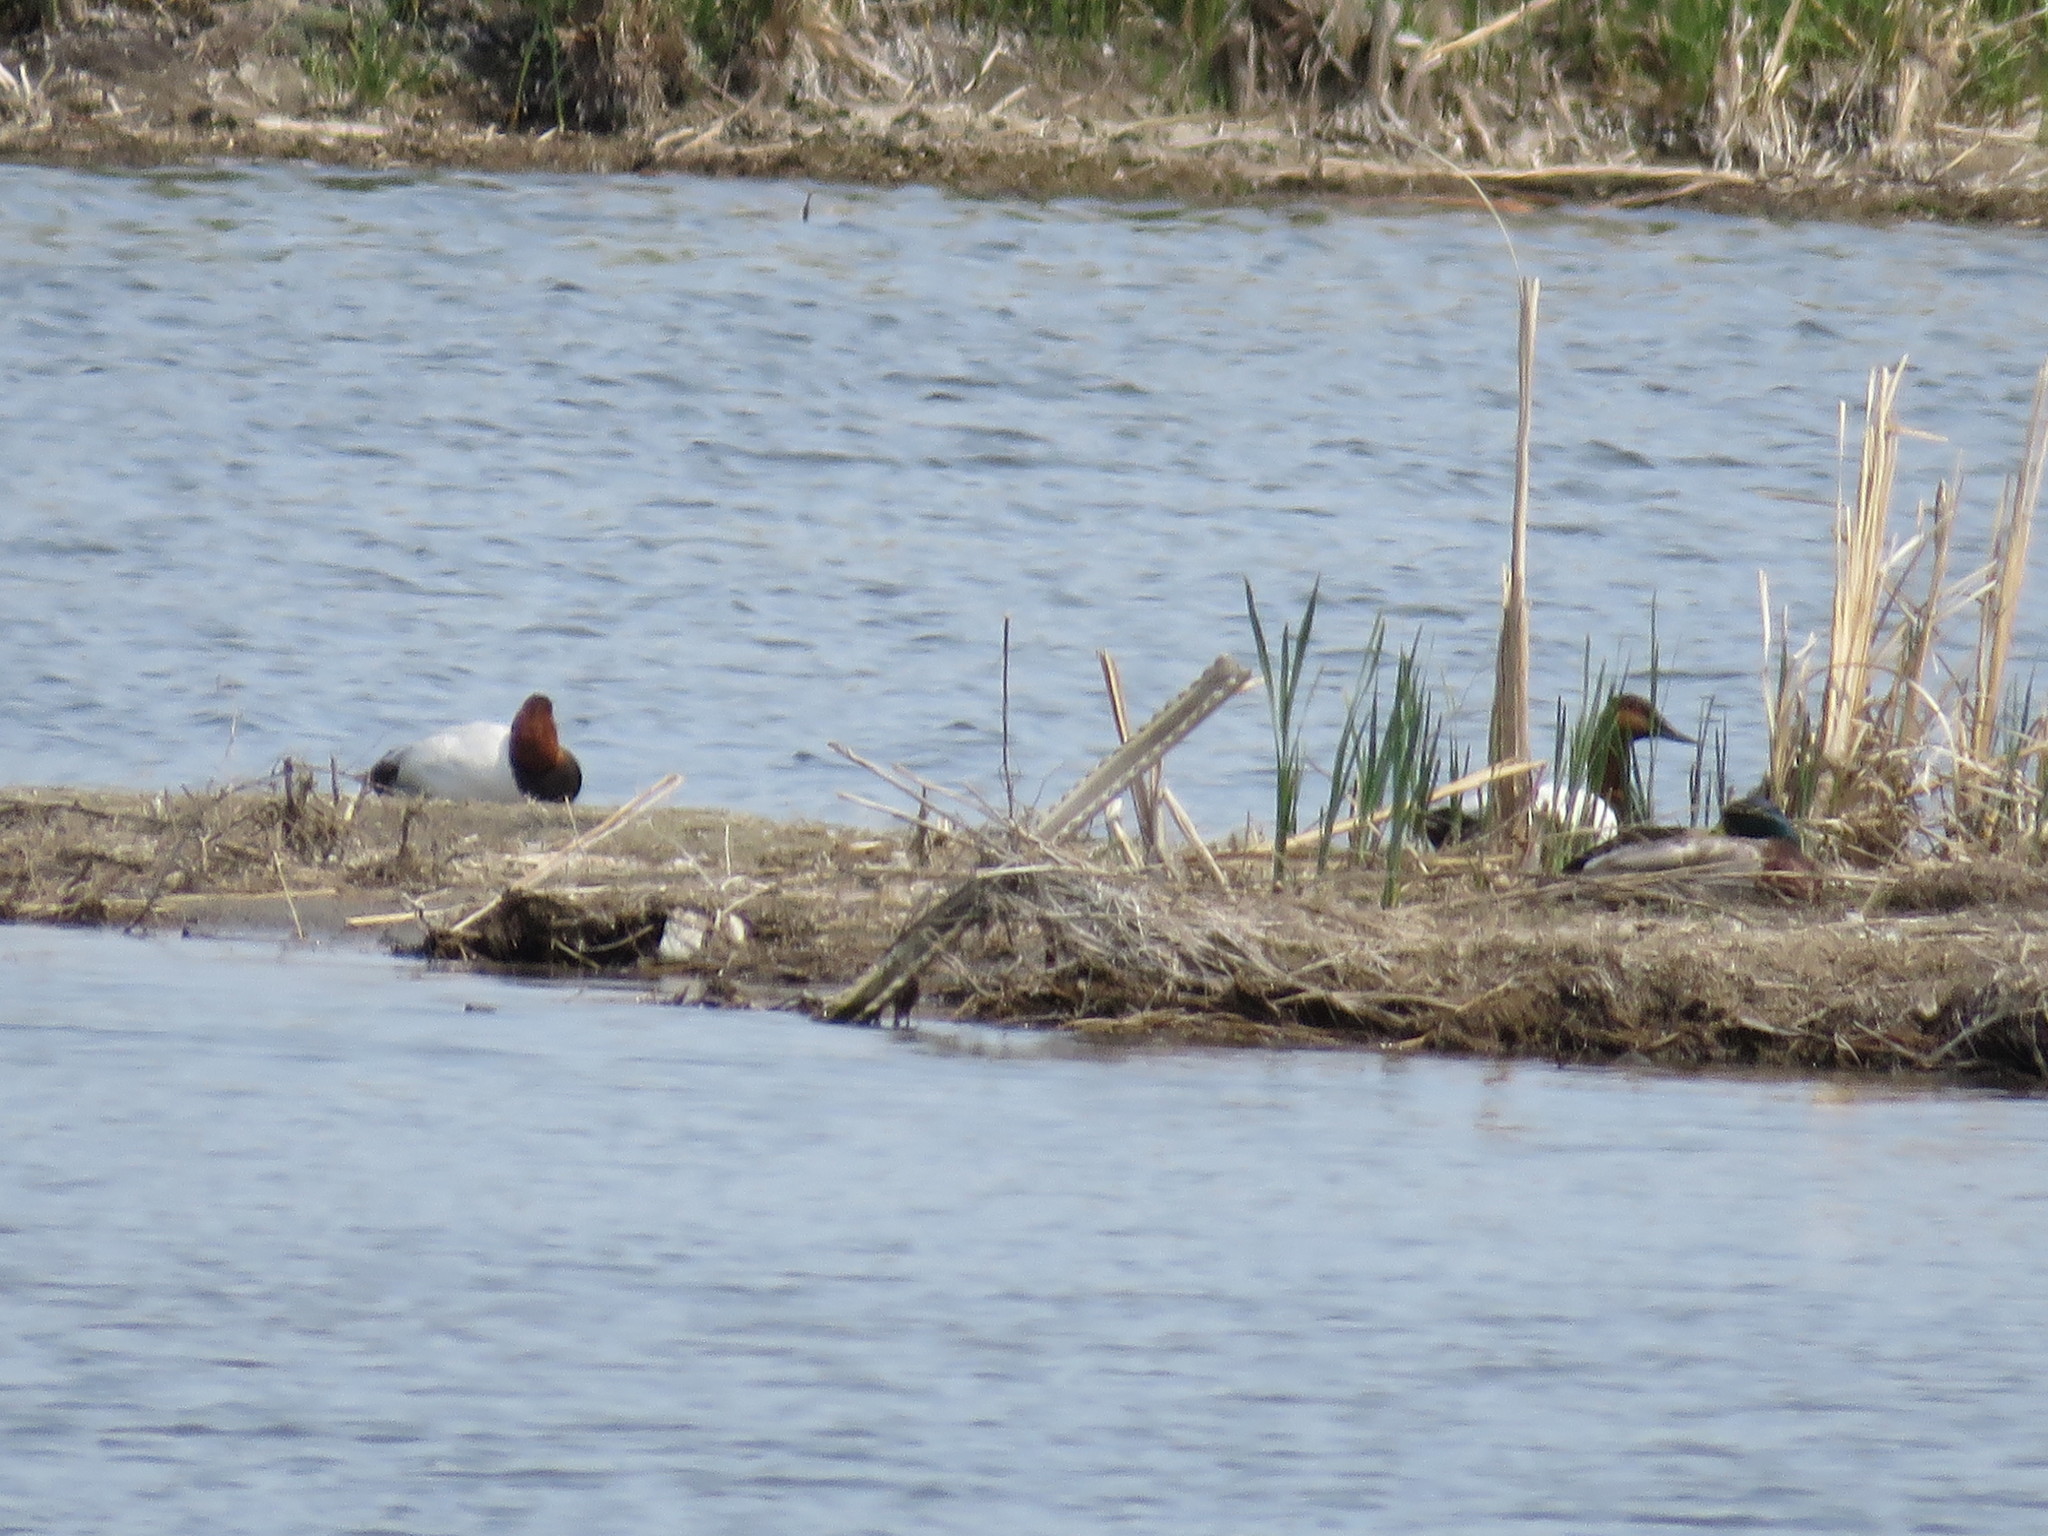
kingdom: Animalia
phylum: Chordata
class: Aves
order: Anseriformes
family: Anatidae
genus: Aythya
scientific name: Aythya valisineria
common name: Canvasback
